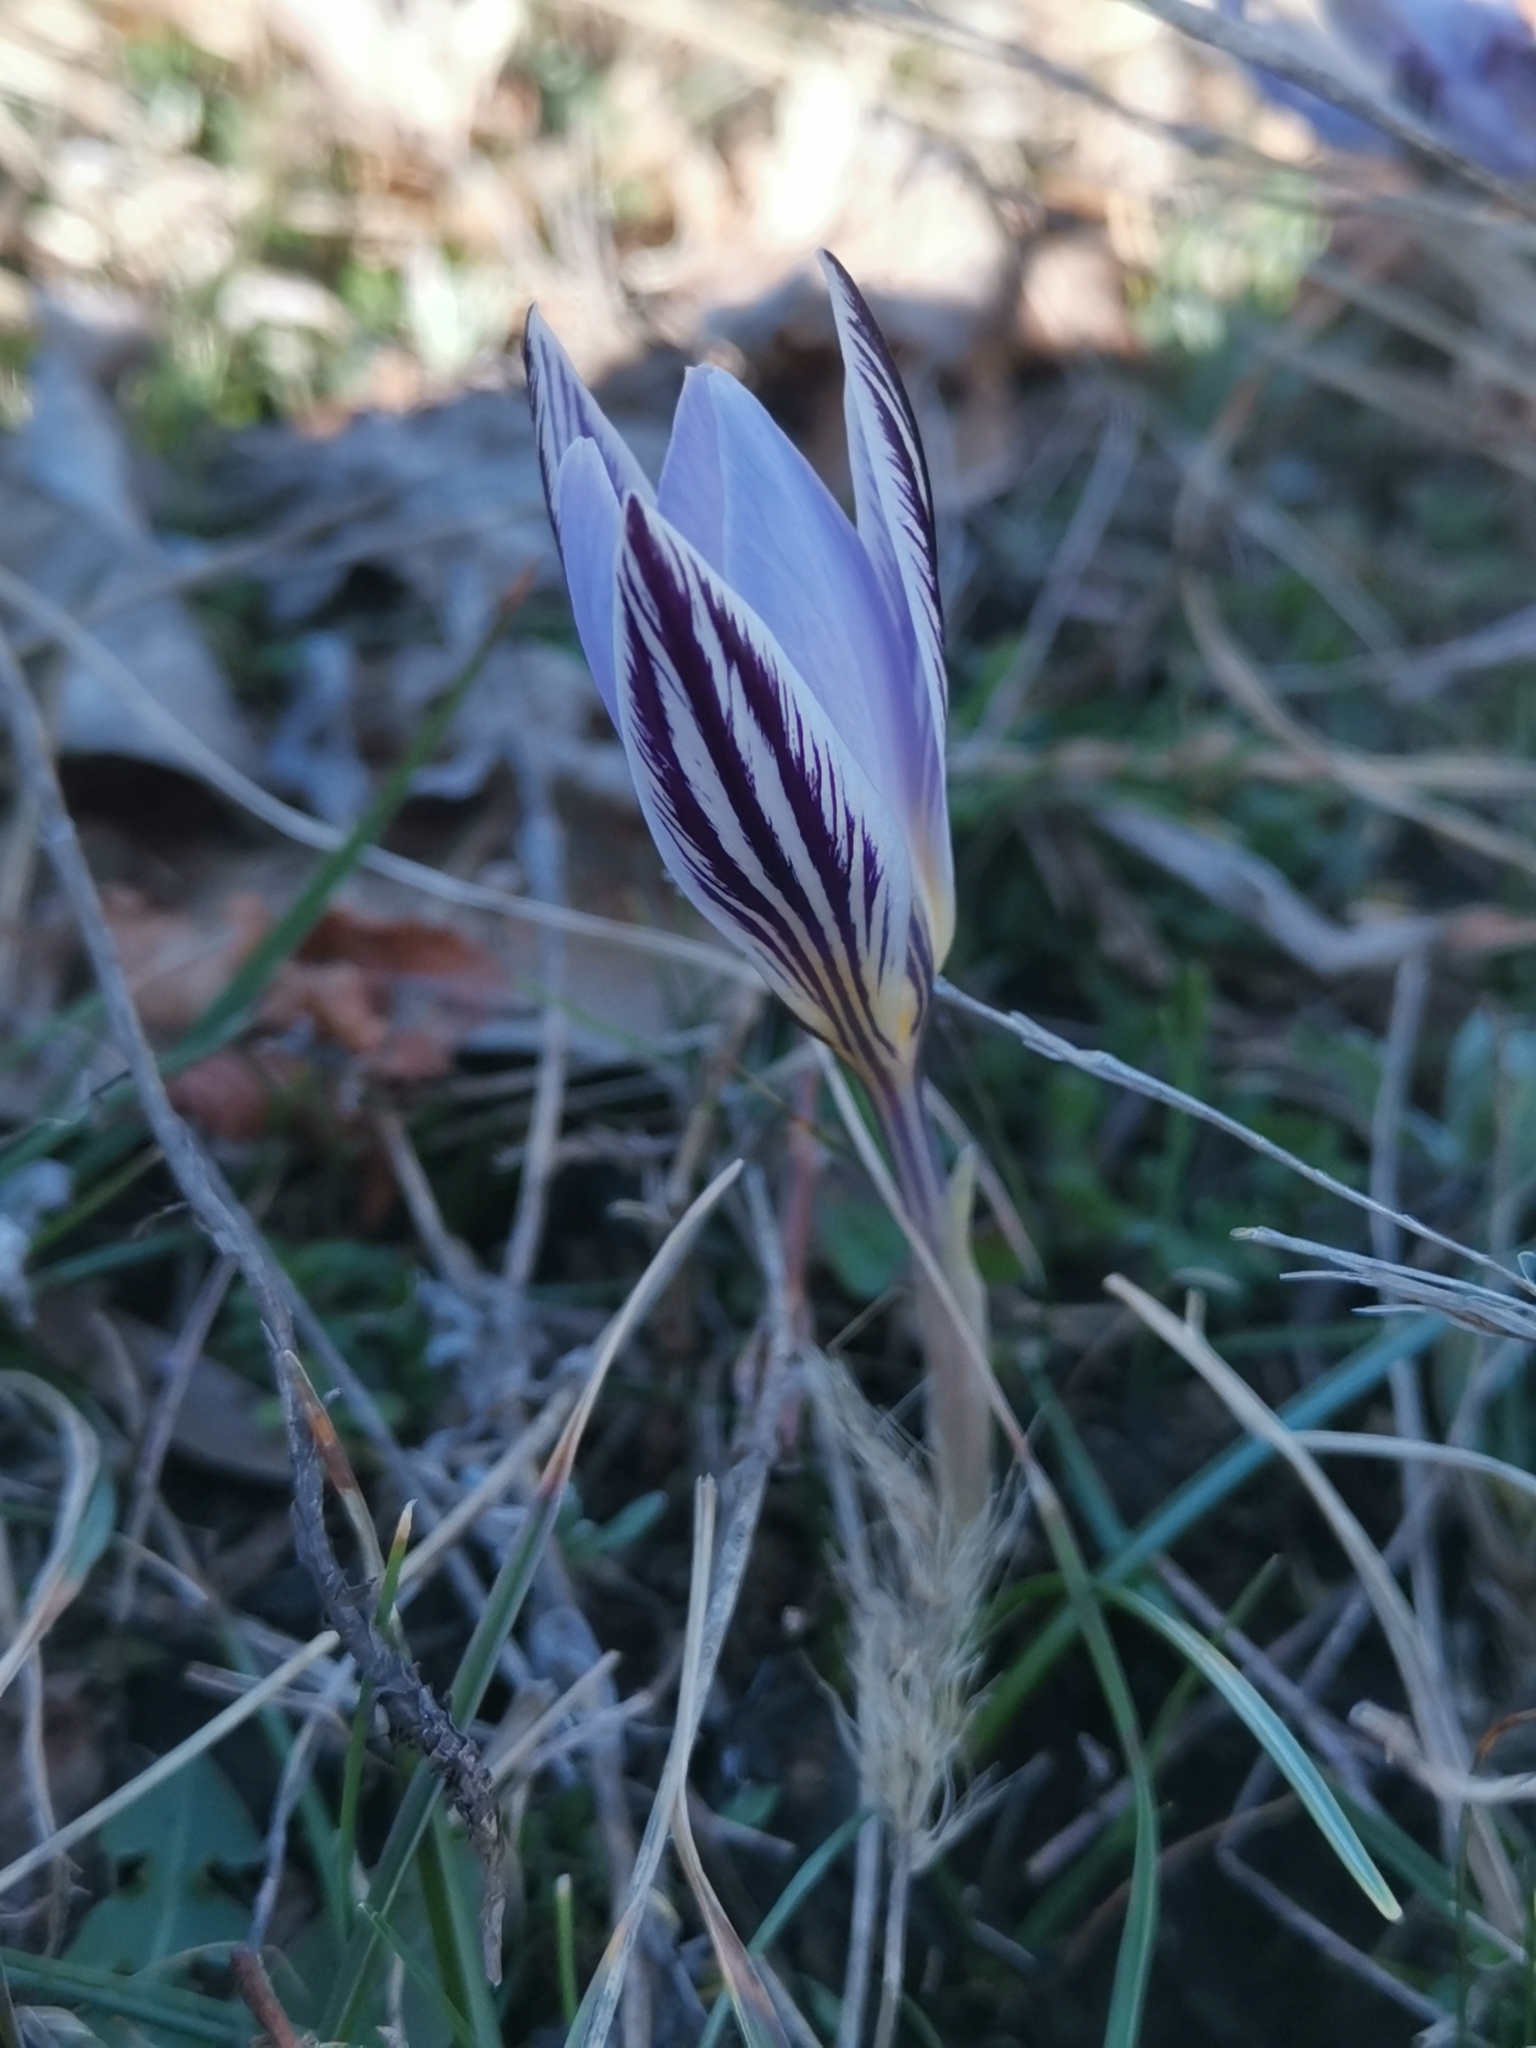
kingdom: Plantae
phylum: Tracheophyta
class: Liliopsida
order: Asparagales
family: Iridaceae
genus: Crocus
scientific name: Crocus variegatus
